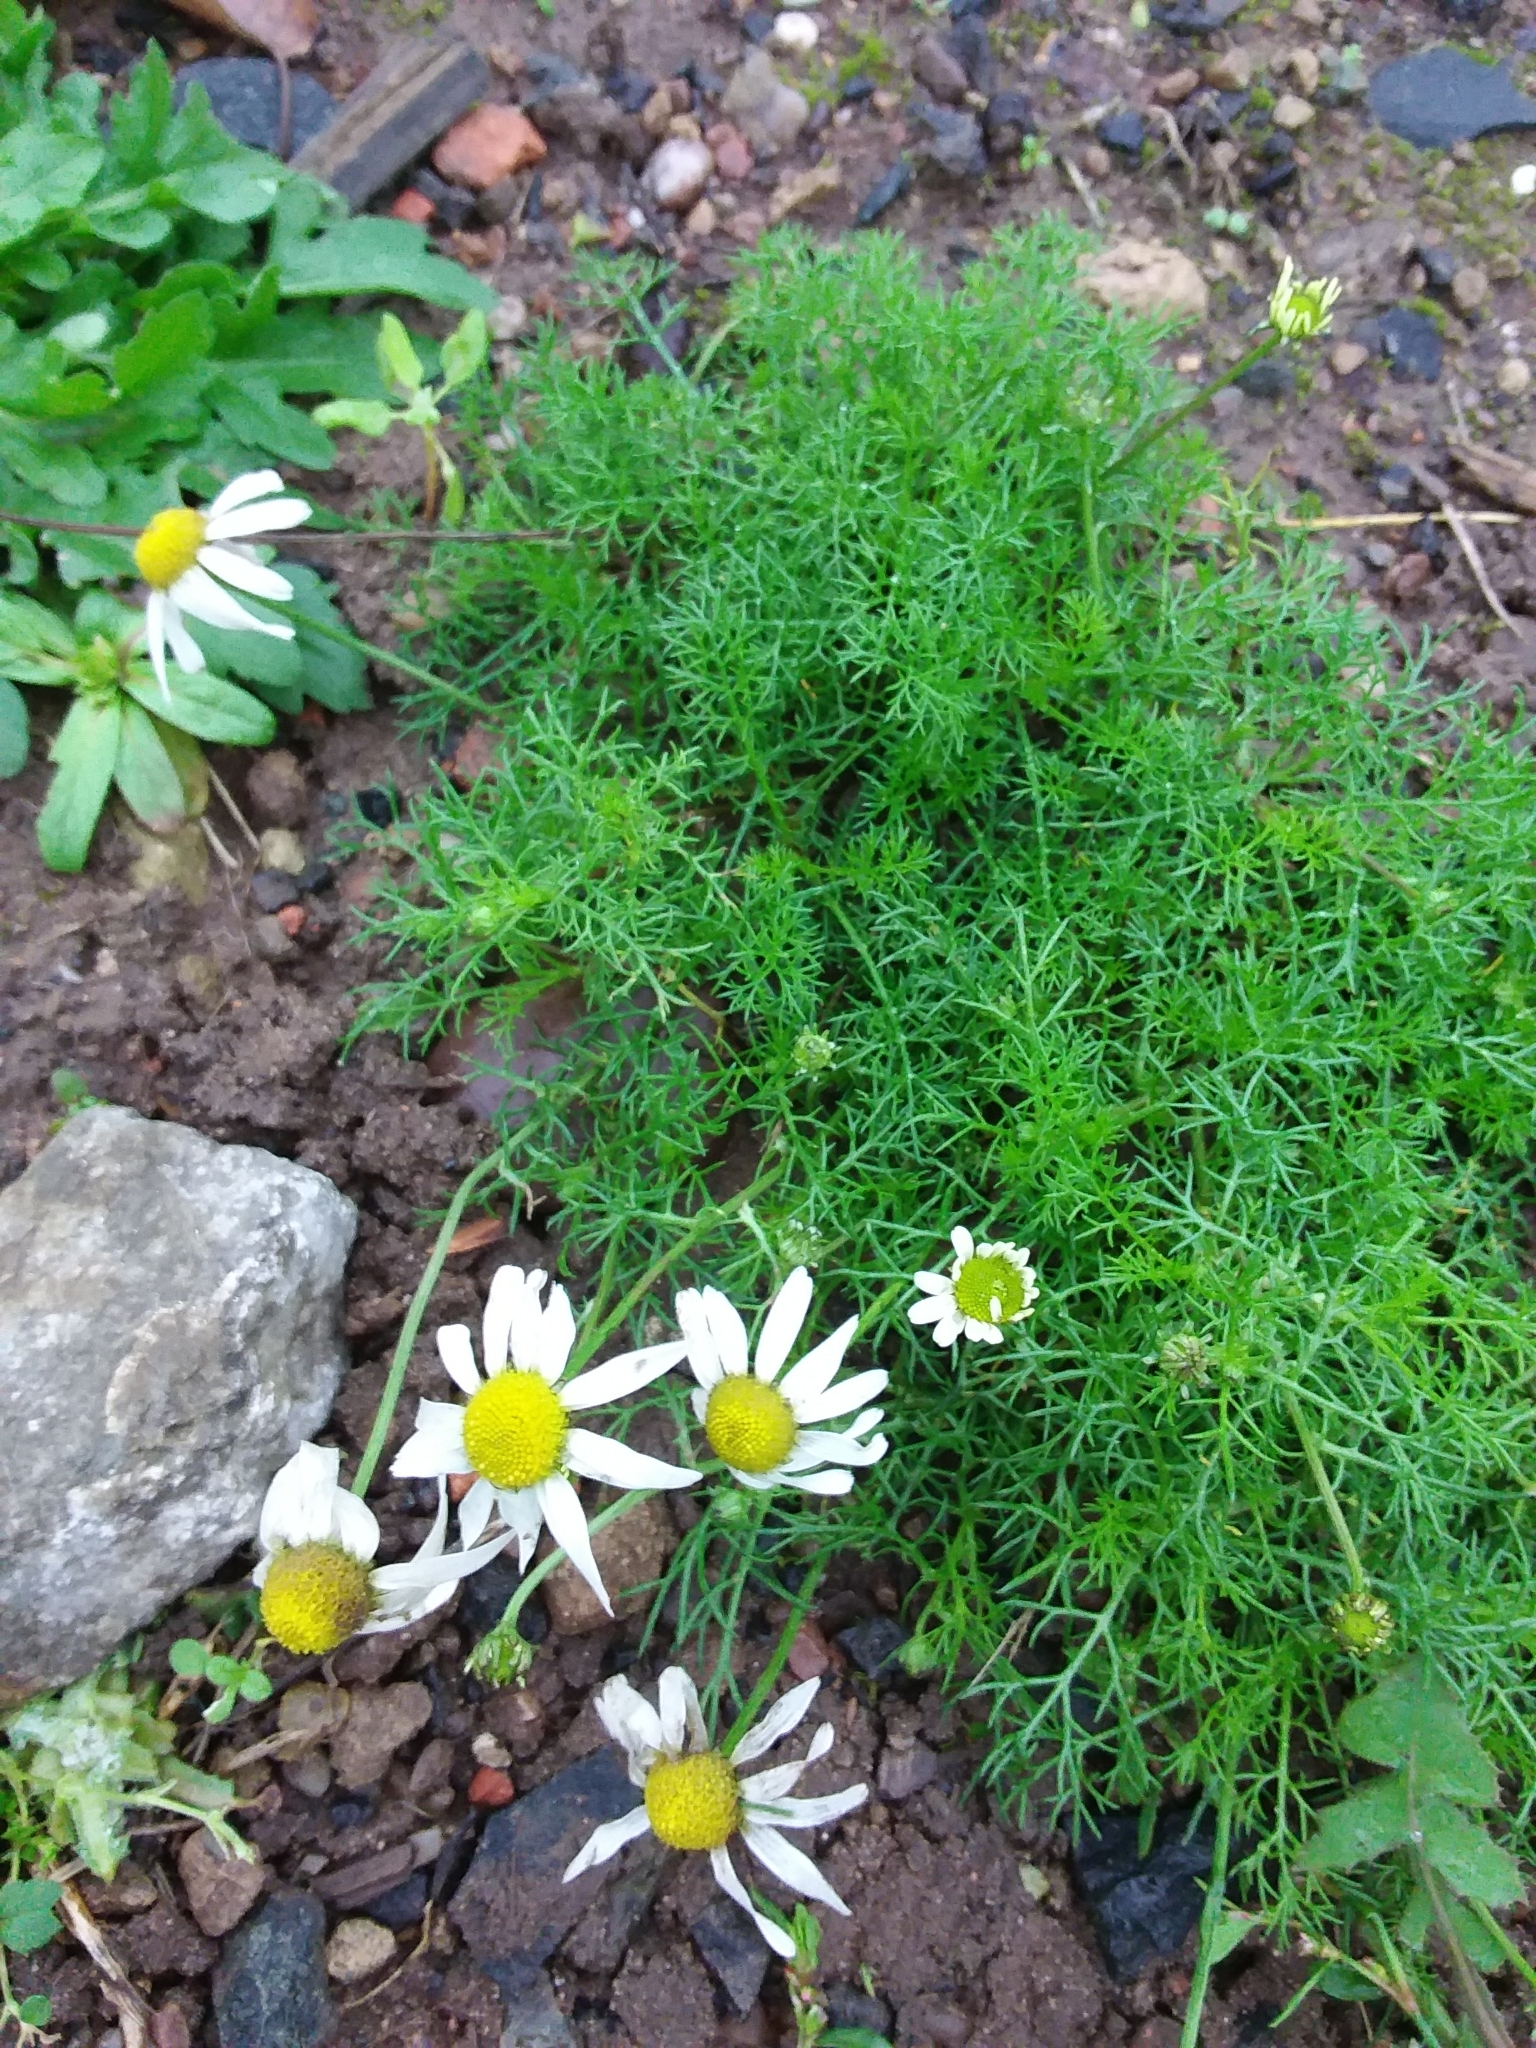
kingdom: Plantae
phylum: Tracheophyta
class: Magnoliopsida
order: Asterales
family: Asteraceae
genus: Tripleurospermum
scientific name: Tripleurospermum inodorum
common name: Scentless mayweed
